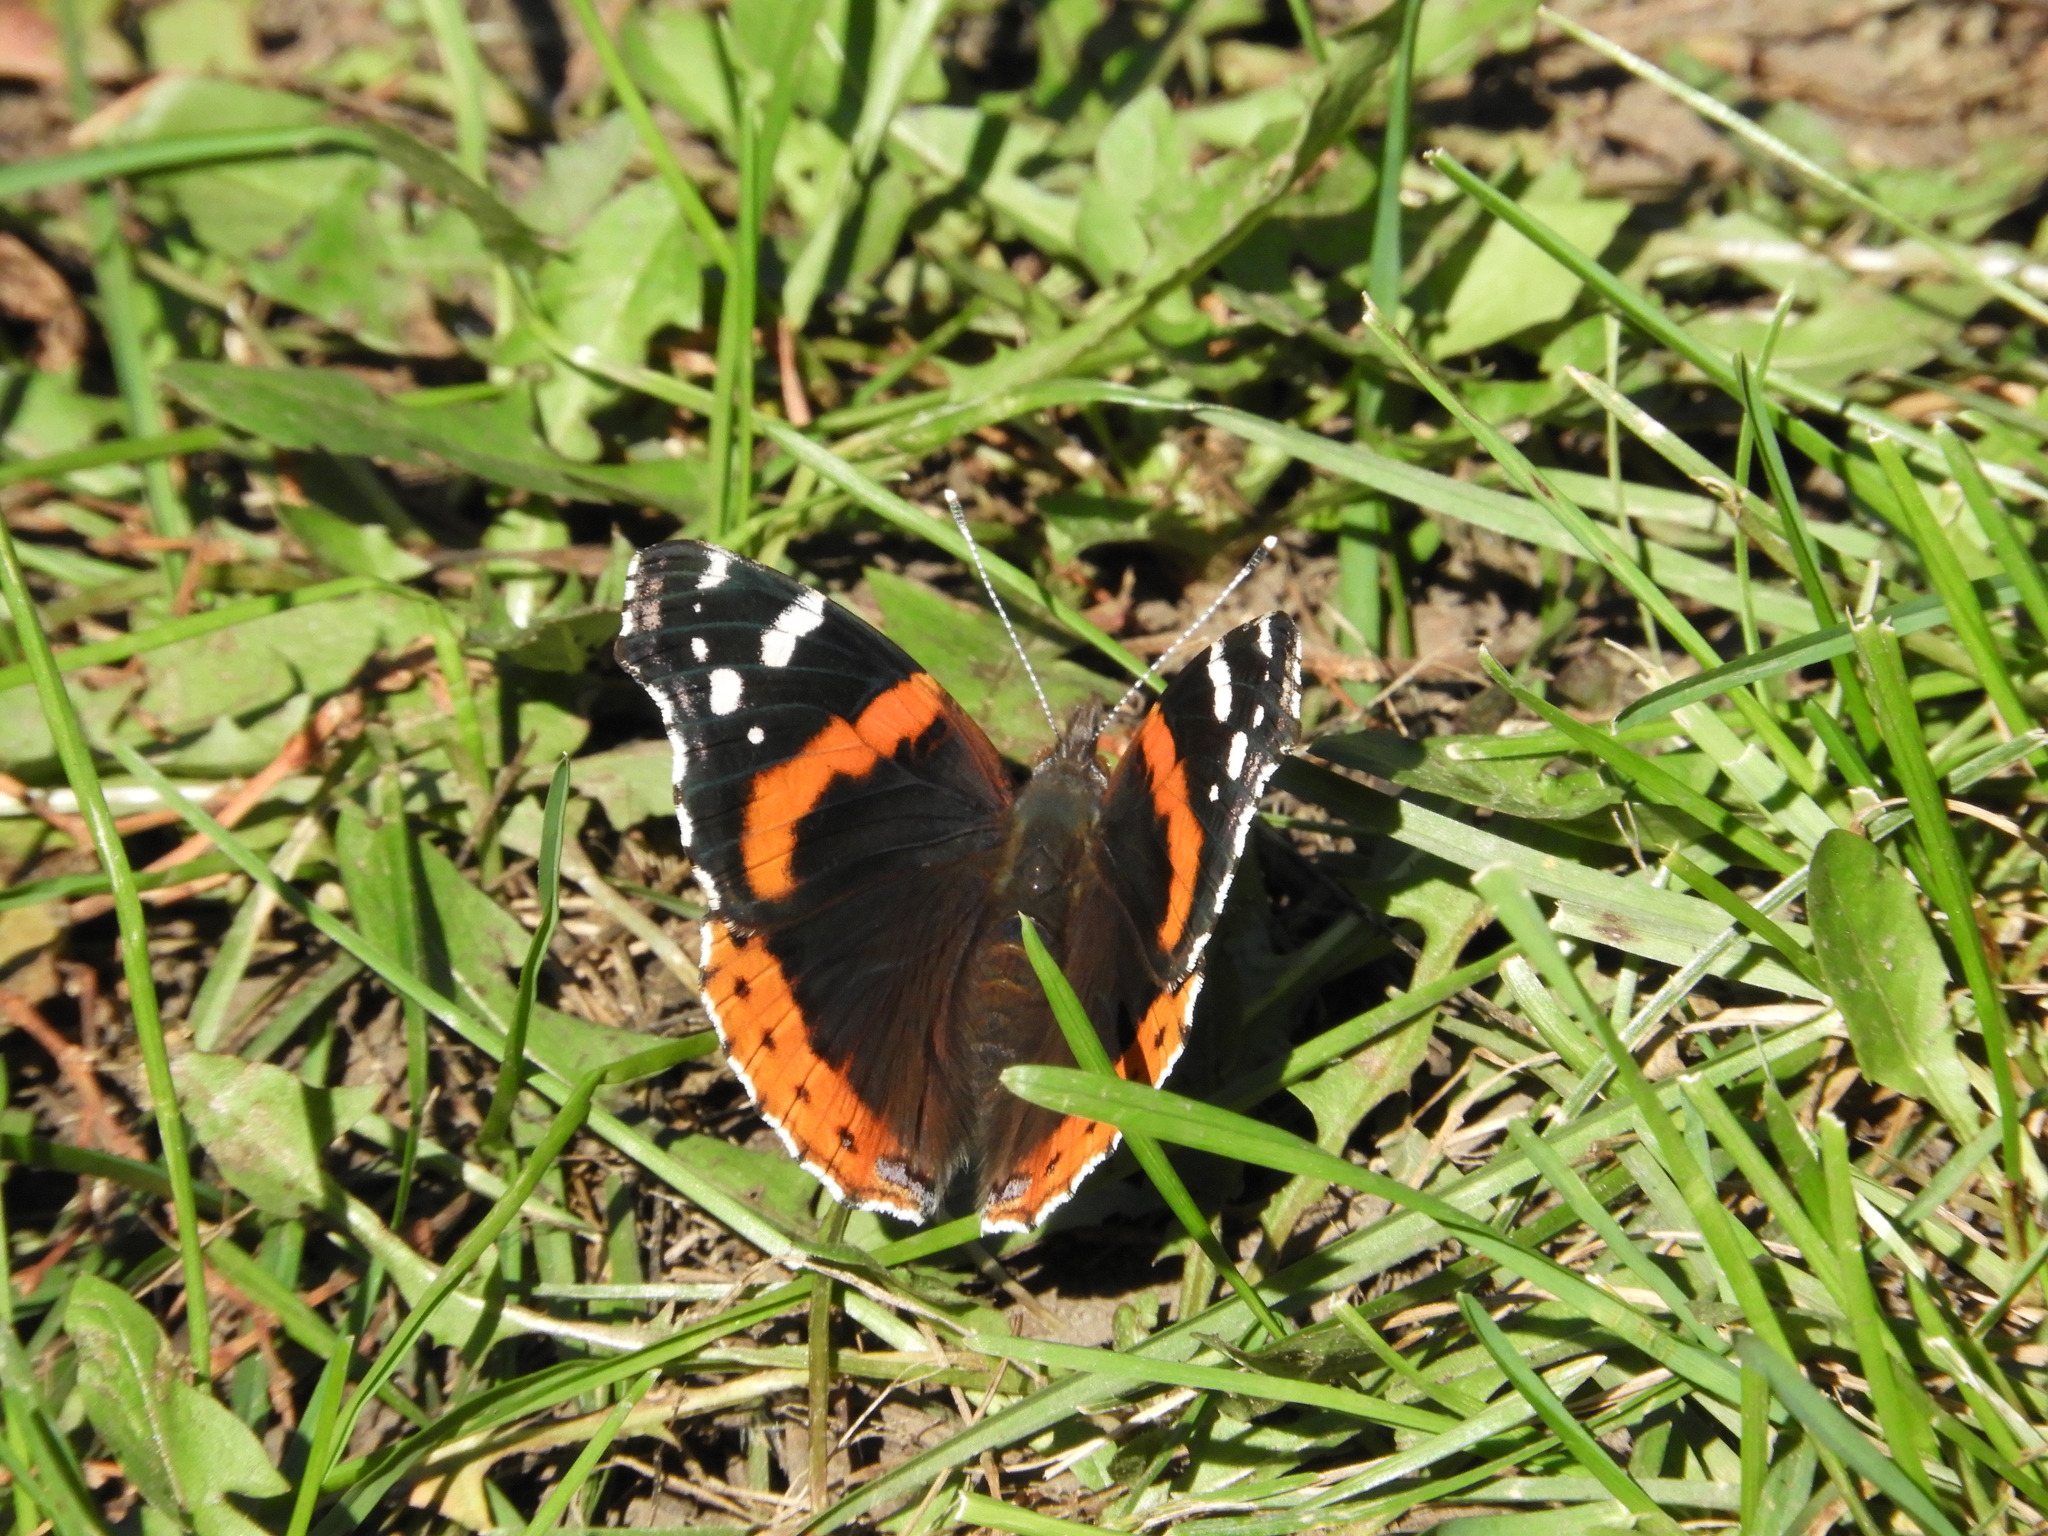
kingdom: Animalia
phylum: Arthropoda
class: Insecta
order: Lepidoptera
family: Nymphalidae
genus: Vanessa
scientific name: Vanessa atalanta
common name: Red admiral
